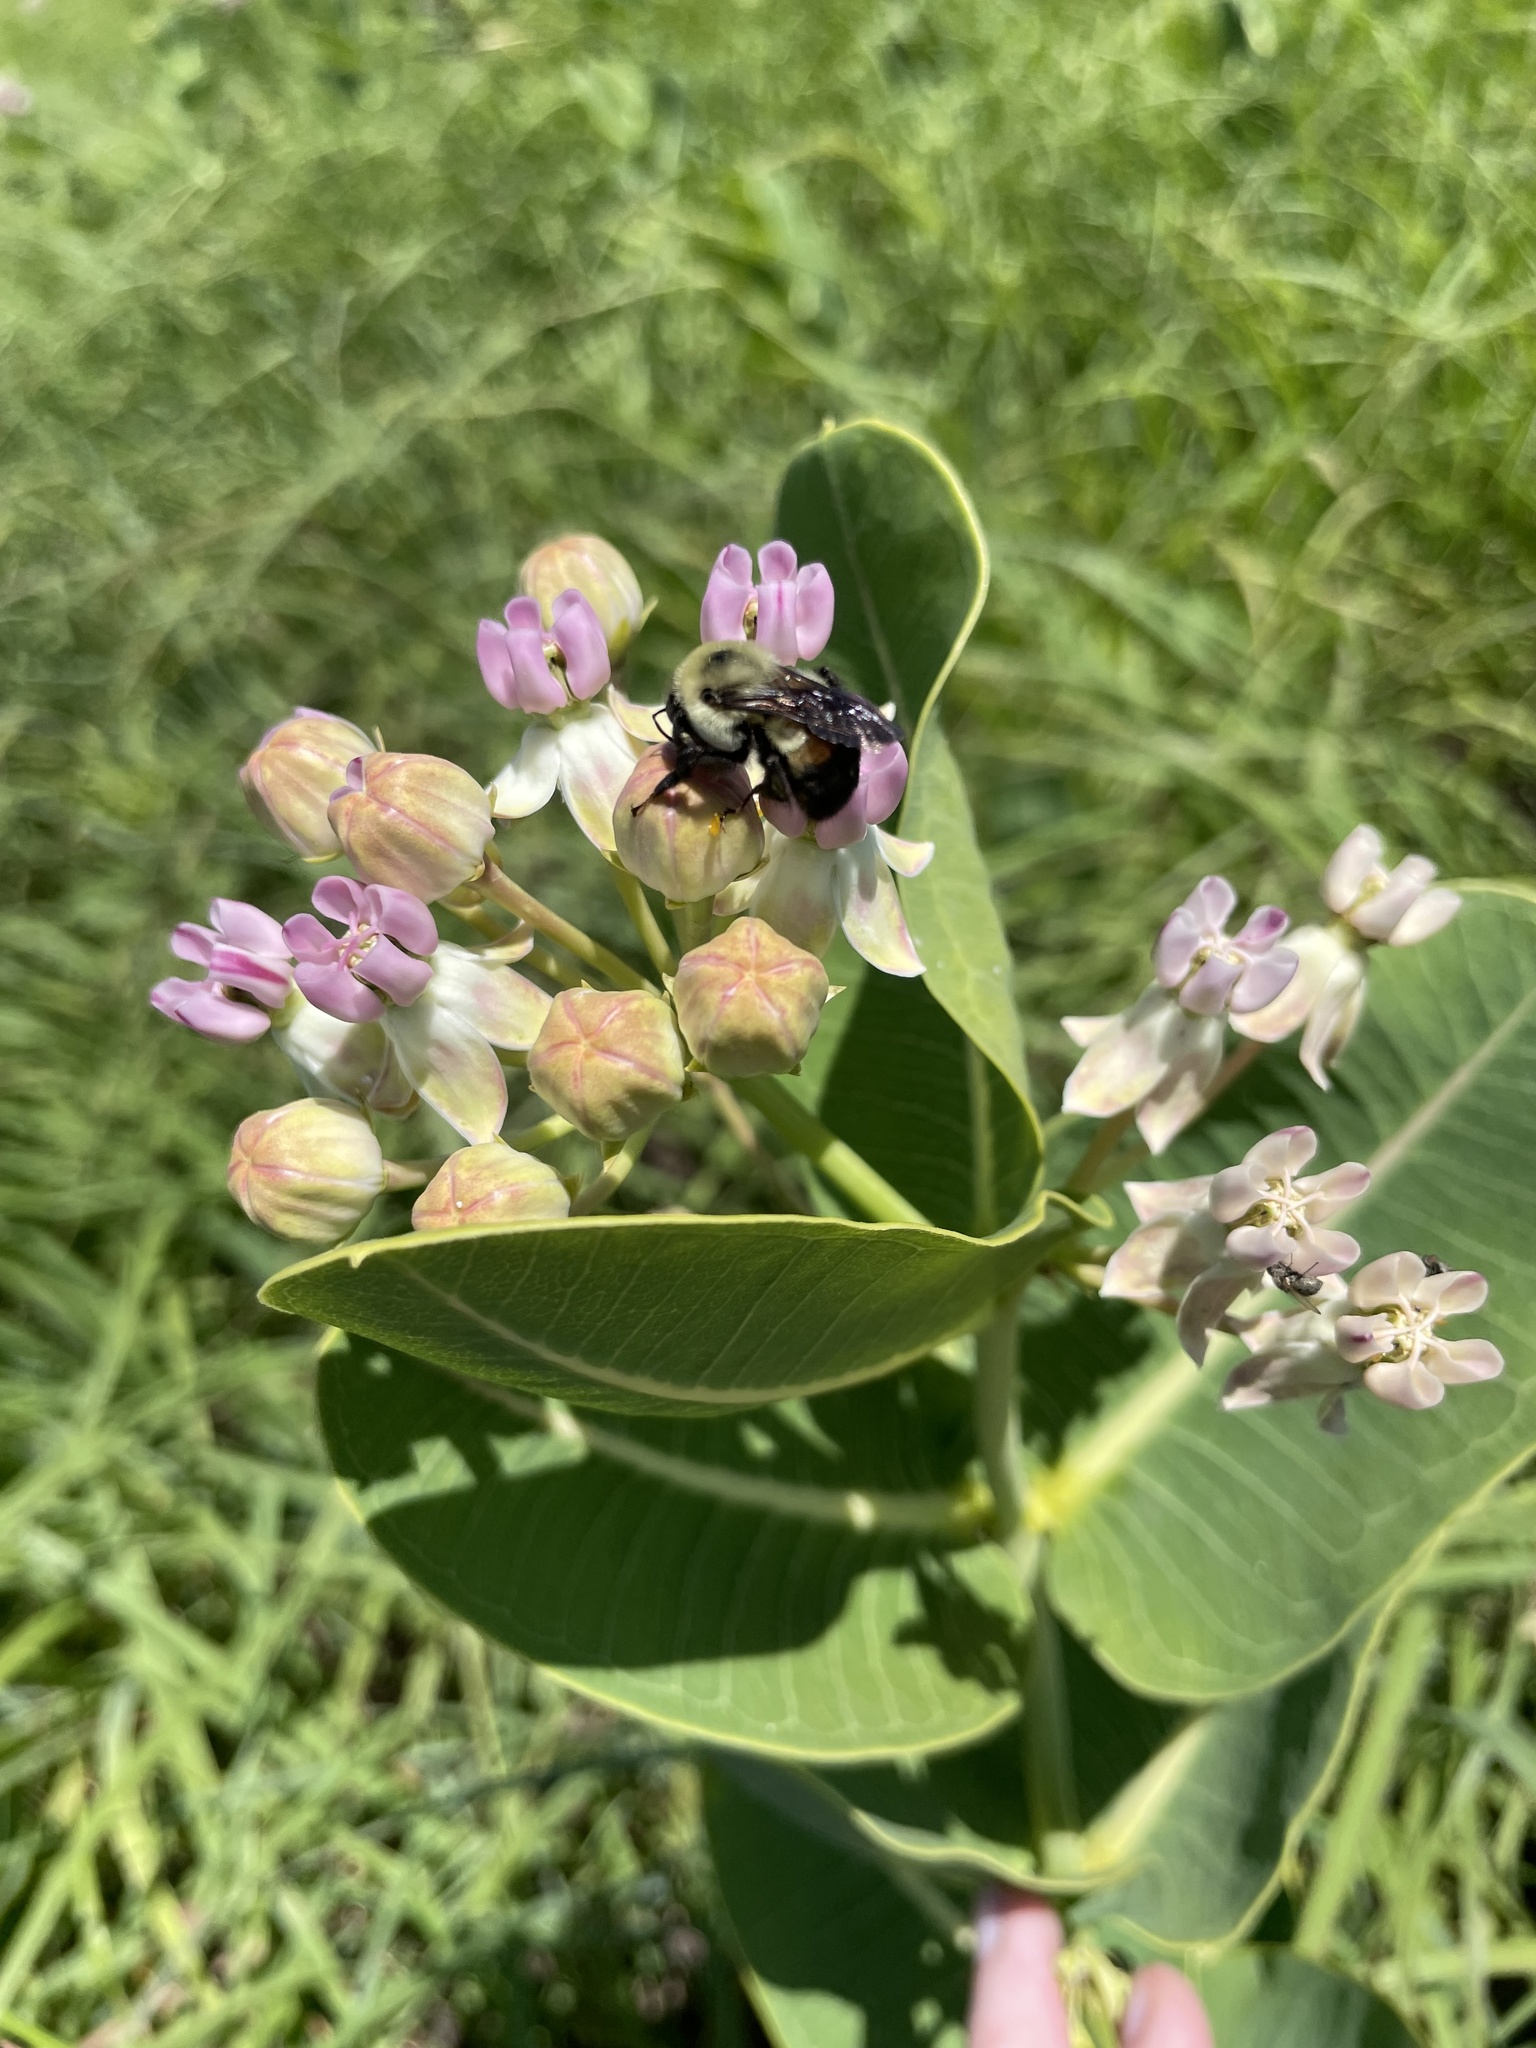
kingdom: Animalia
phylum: Arthropoda
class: Insecta
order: Hymenoptera
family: Apidae
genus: Bombus
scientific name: Bombus griseocollis
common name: Brown-belted bumble bee
